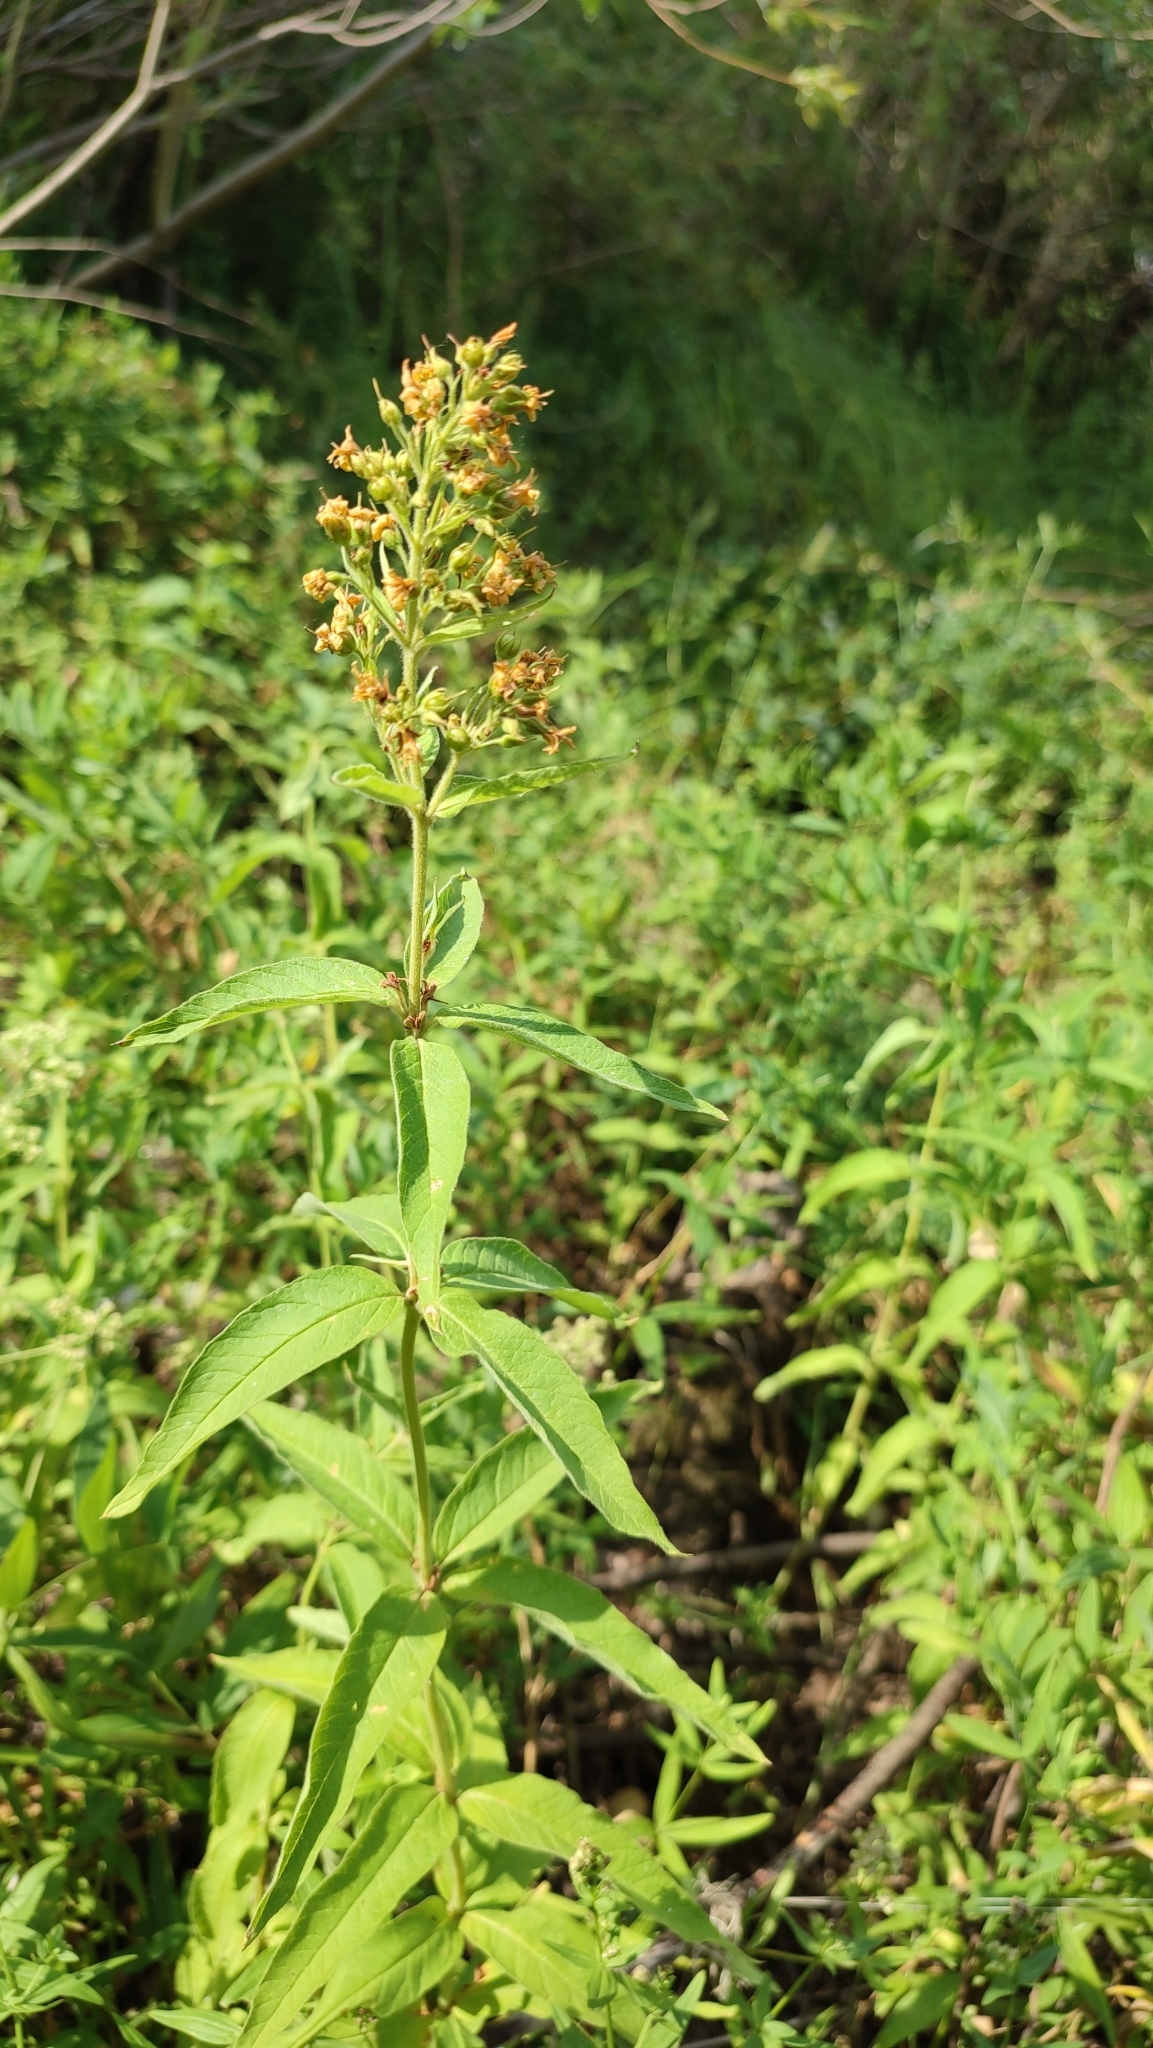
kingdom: Plantae
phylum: Tracheophyta
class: Magnoliopsida
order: Ericales
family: Primulaceae
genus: Lysimachia
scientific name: Lysimachia vulgaris
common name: Yellow loosestrife
